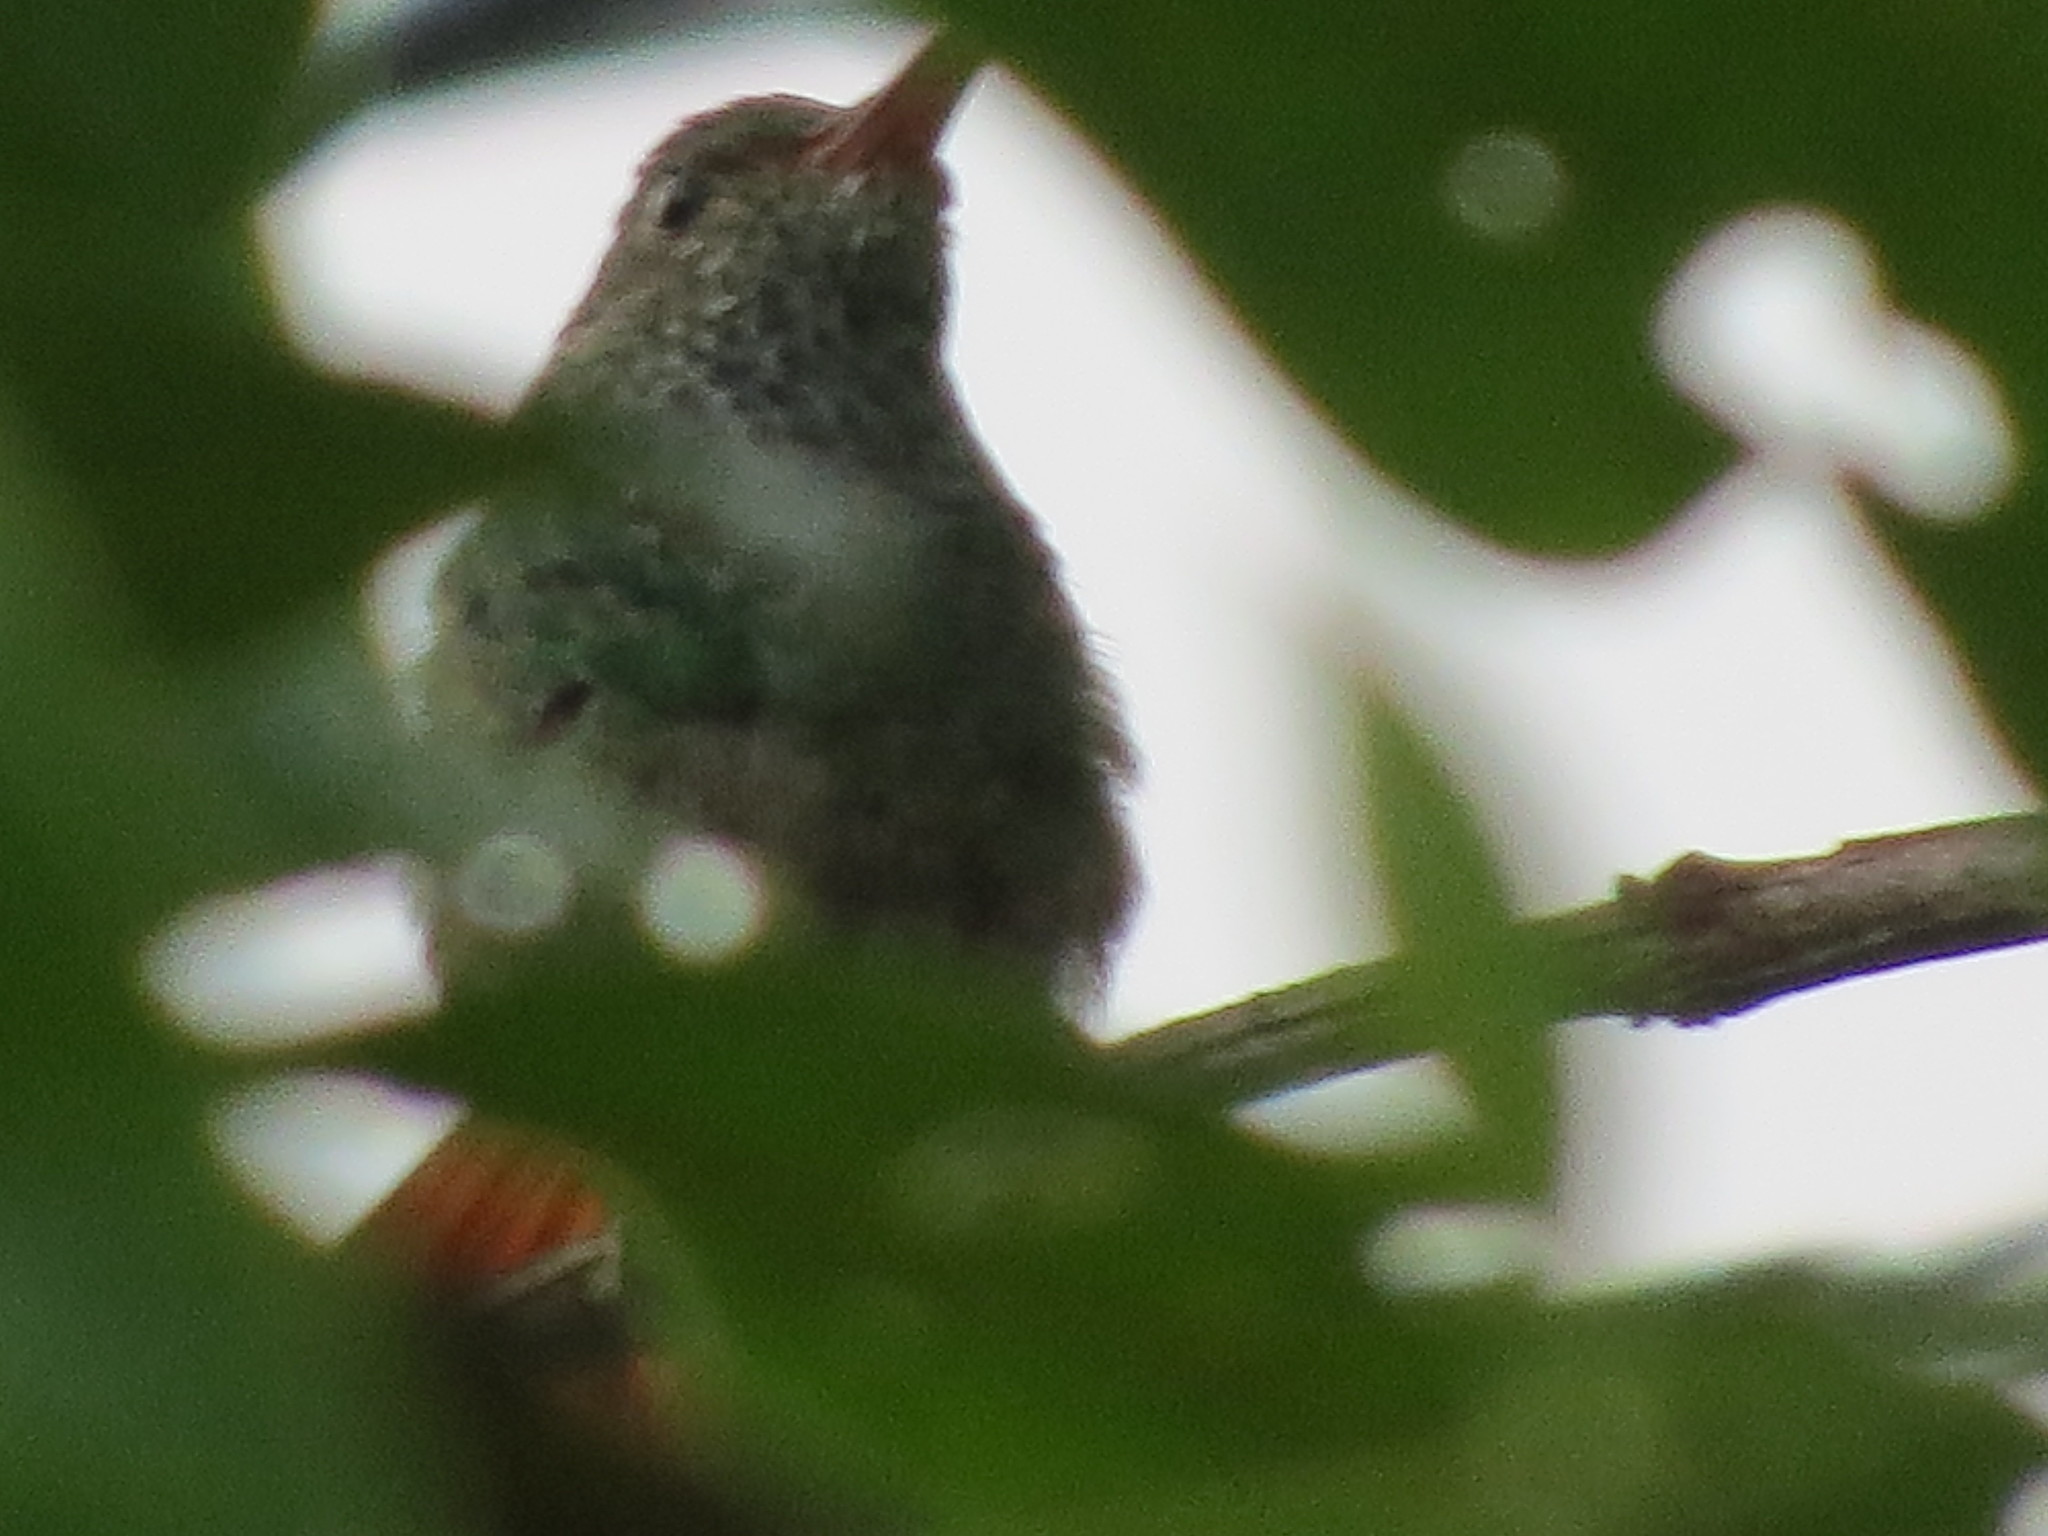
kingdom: Animalia
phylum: Chordata
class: Aves
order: Apodiformes
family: Trochilidae
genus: Amazilia
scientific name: Amazilia tzacatl
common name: Rufous-tailed hummingbird
